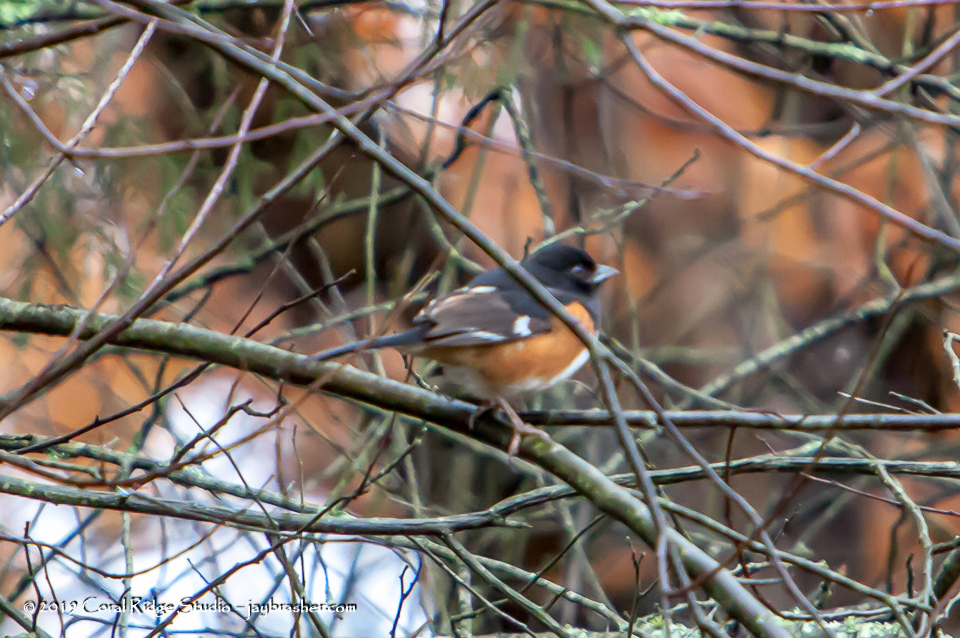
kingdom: Animalia
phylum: Chordata
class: Aves
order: Passeriformes
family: Passerellidae
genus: Pipilo
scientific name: Pipilo erythrophthalmus
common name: Eastern towhee
